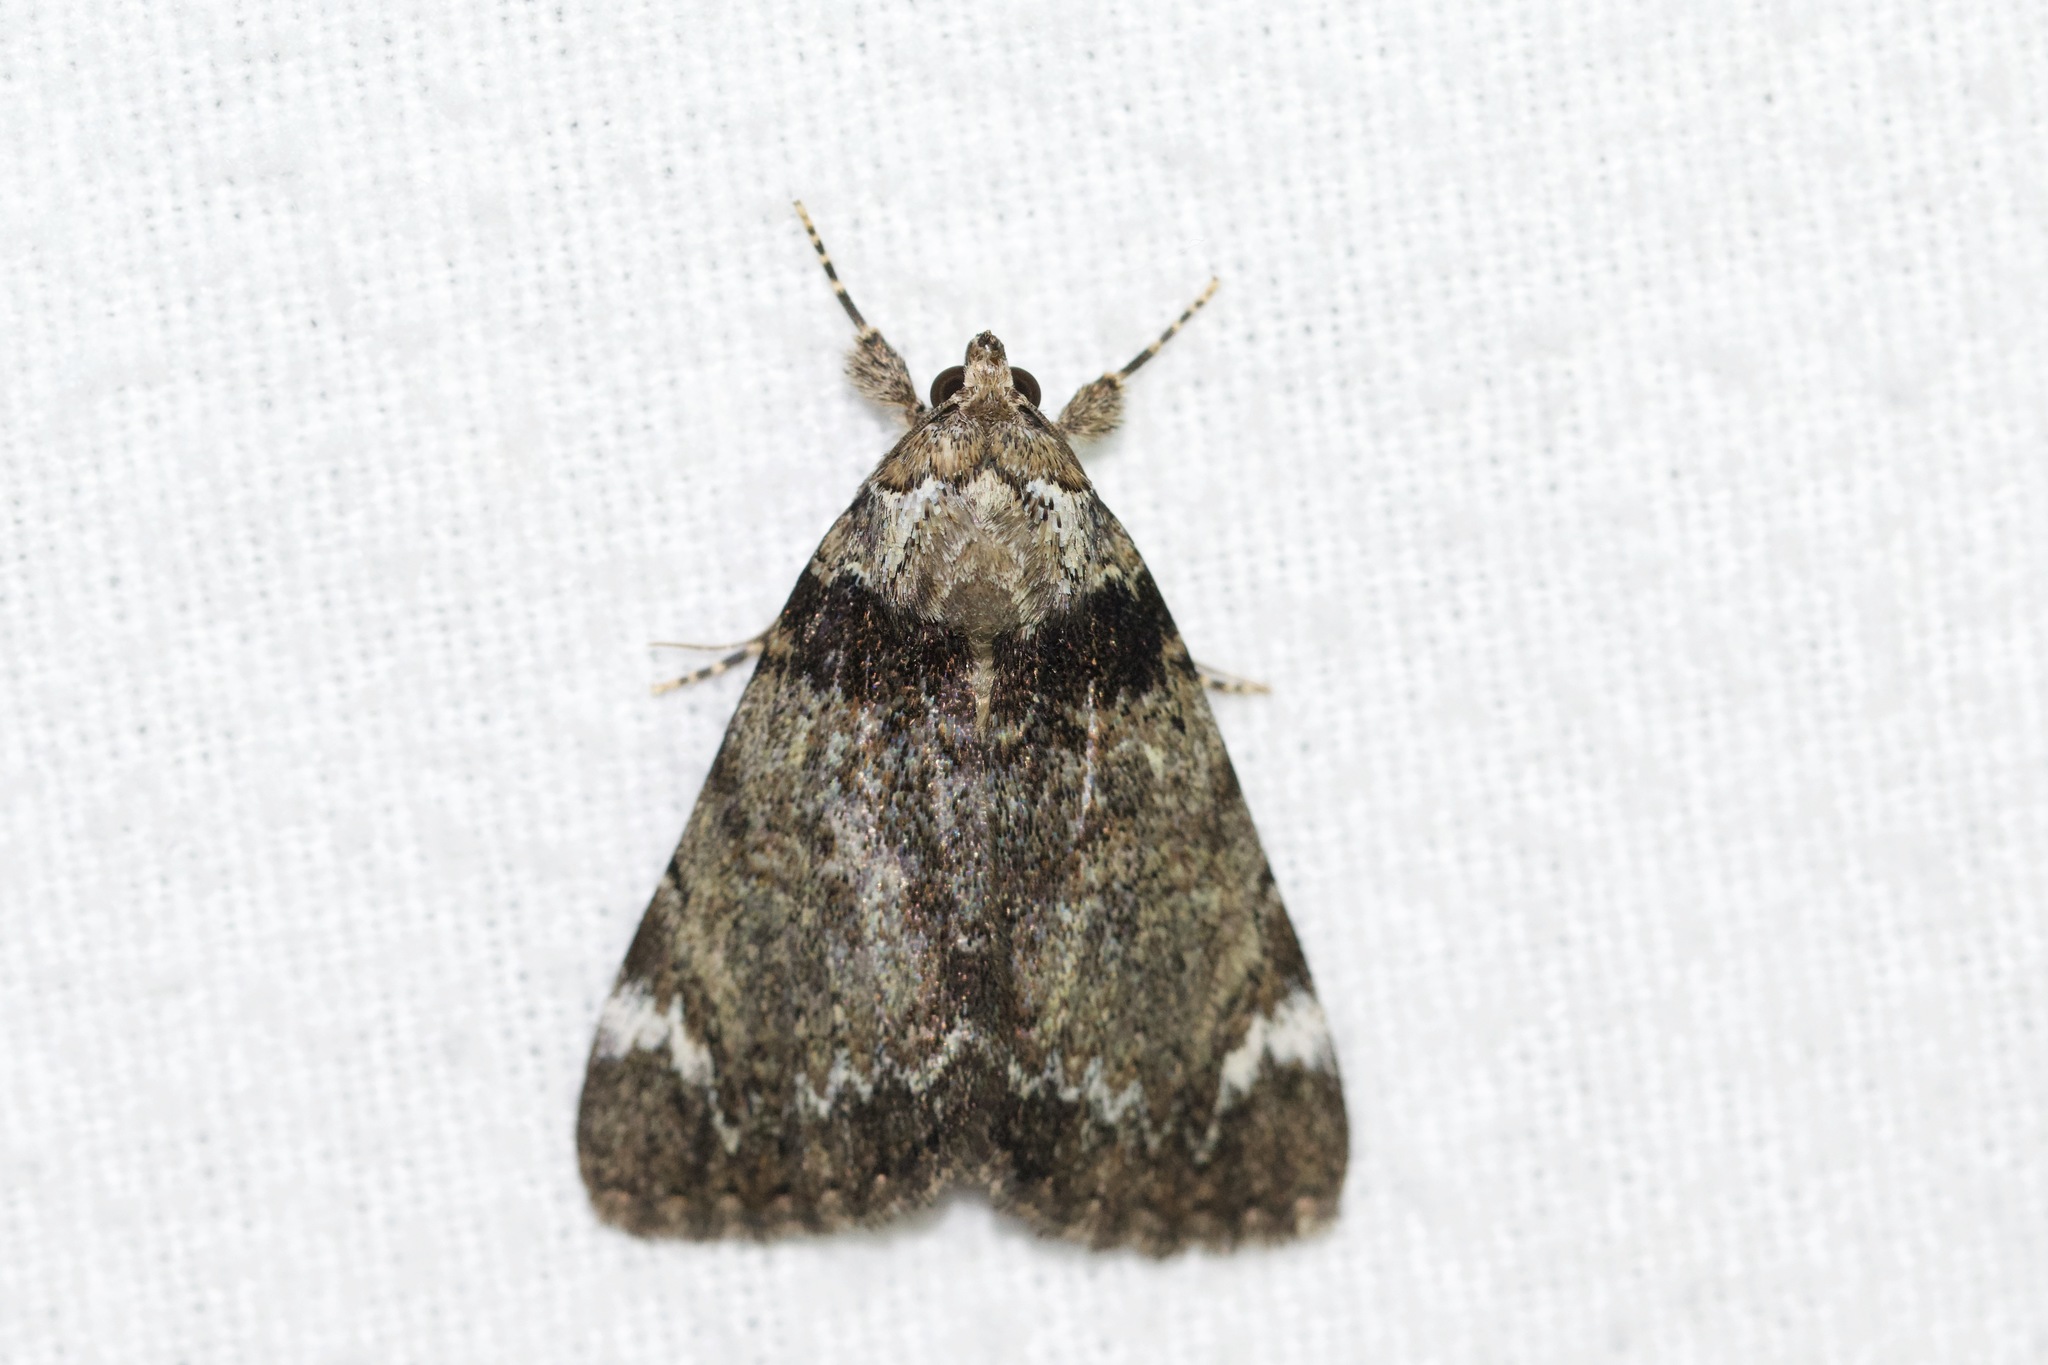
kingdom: Animalia
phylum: Arthropoda
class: Insecta
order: Lepidoptera
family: Erebidae
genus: Catocala
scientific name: Catocala minuta
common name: Little underwing
